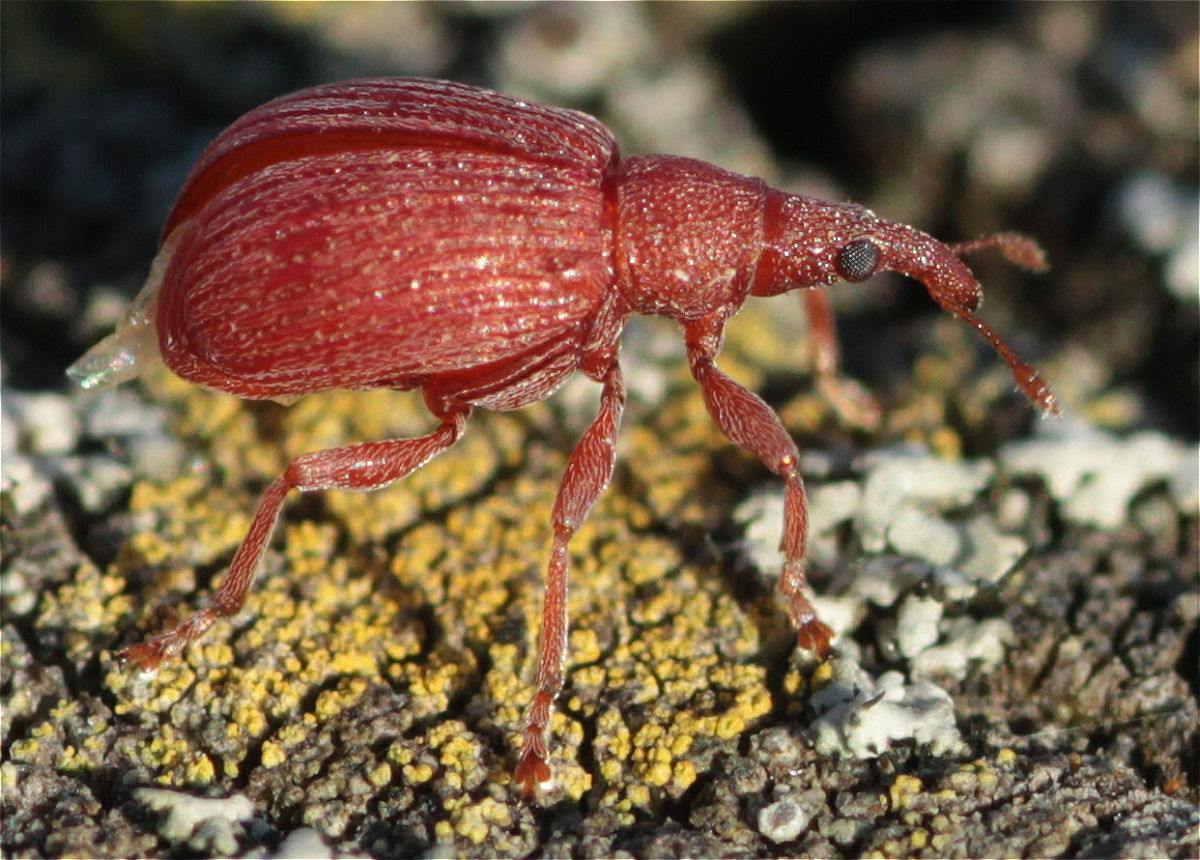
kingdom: Animalia
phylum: Arthropoda
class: Insecta
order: Coleoptera
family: Apionidae
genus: Apion
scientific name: Apion frumentarium
